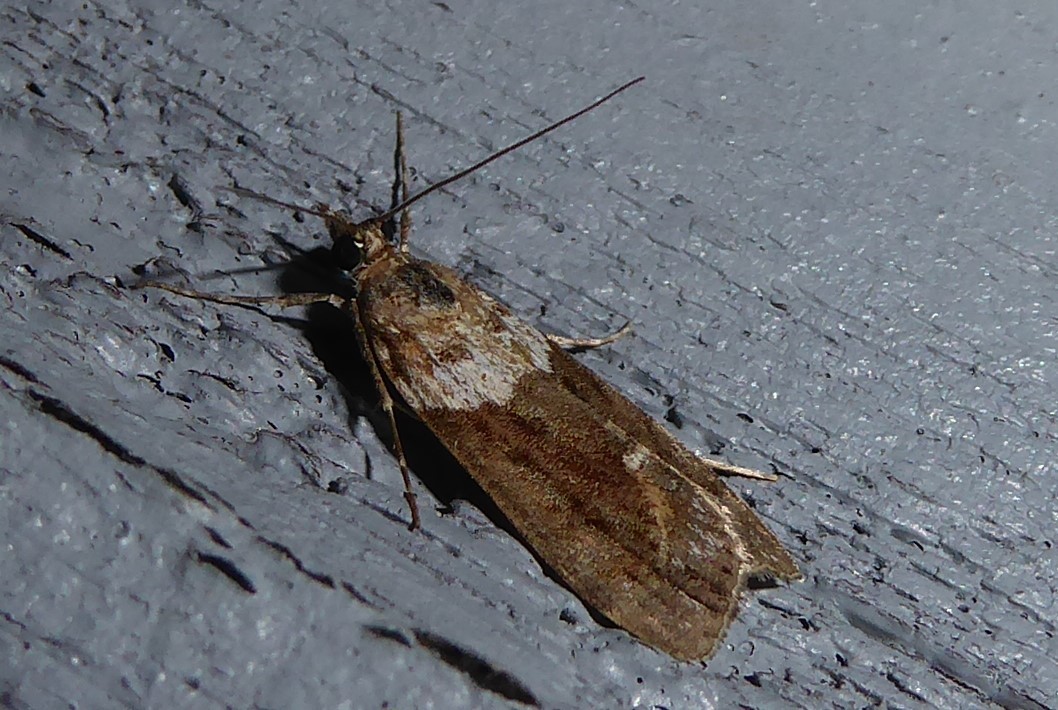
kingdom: Animalia
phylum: Arthropoda
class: Insecta
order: Lepidoptera
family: Crambidae
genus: Eudonia
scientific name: Eudonia submarginalis
